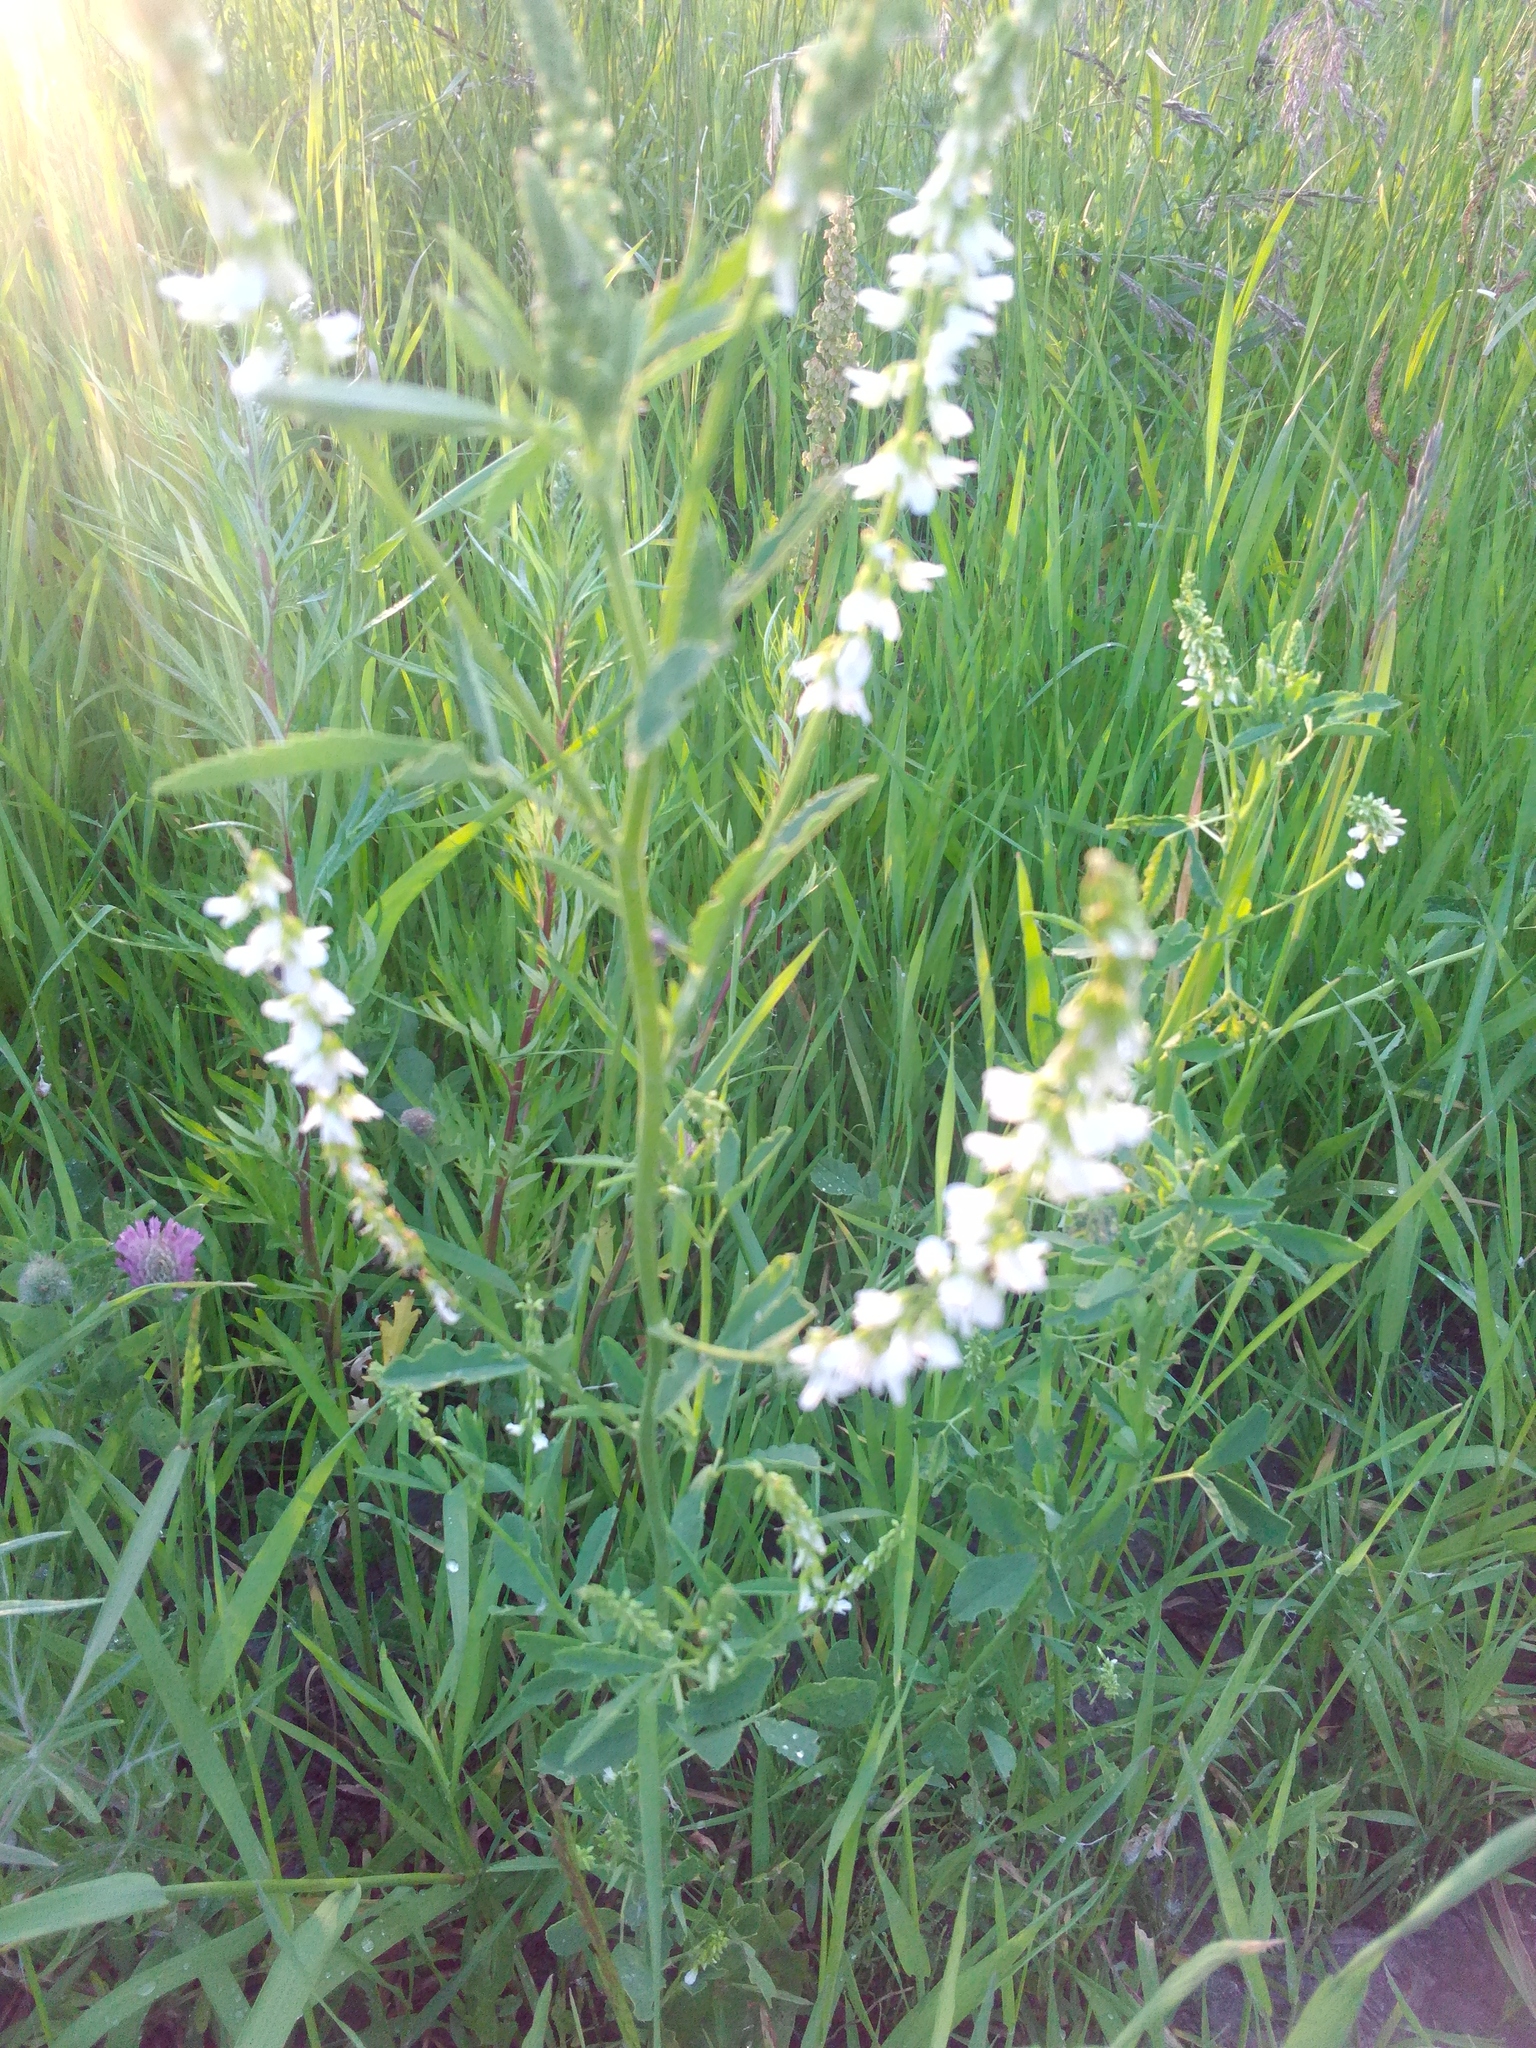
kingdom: Plantae
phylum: Tracheophyta
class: Magnoliopsida
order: Fabales
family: Fabaceae
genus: Melilotus
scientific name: Melilotus albus
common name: White melilot
